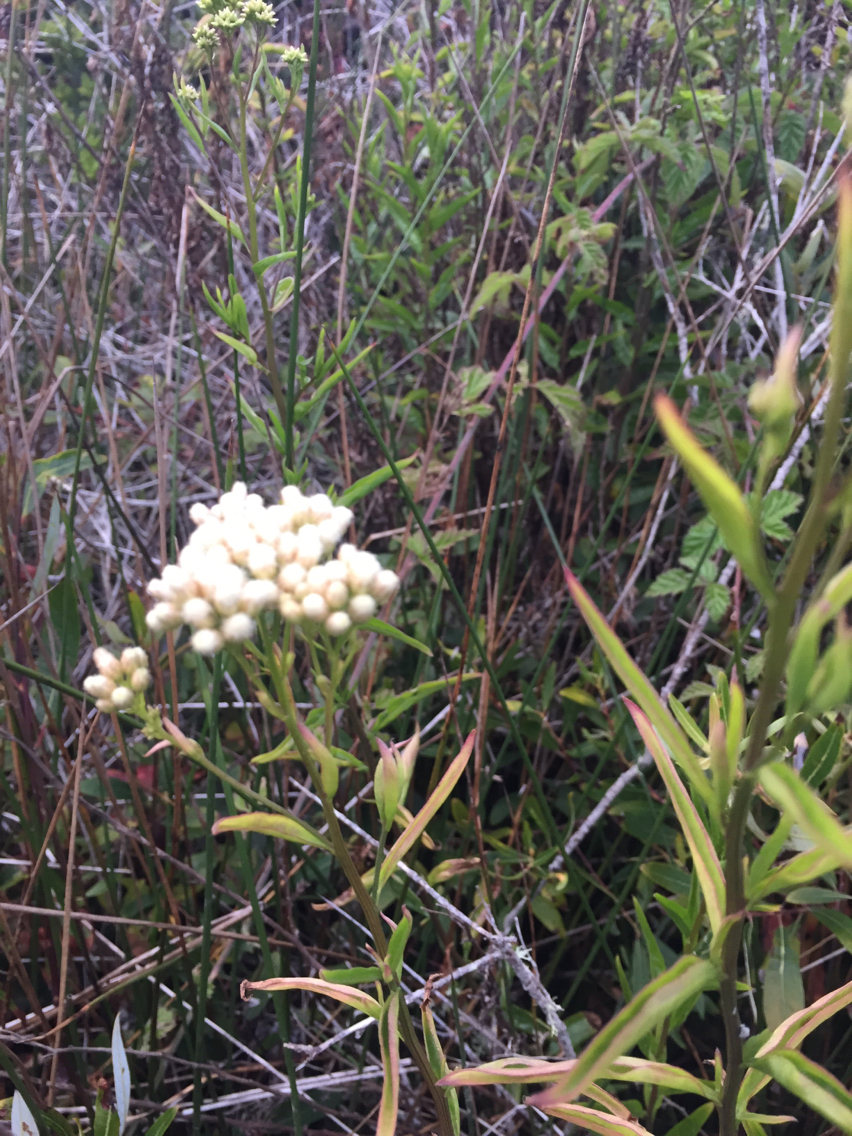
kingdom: Plantae
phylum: Tracheophyta
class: Magnoliopsida
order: Asterales
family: Asteraceae
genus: Baccharis
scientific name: Baccharis glutinosa
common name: Saltmarsh baccharis
